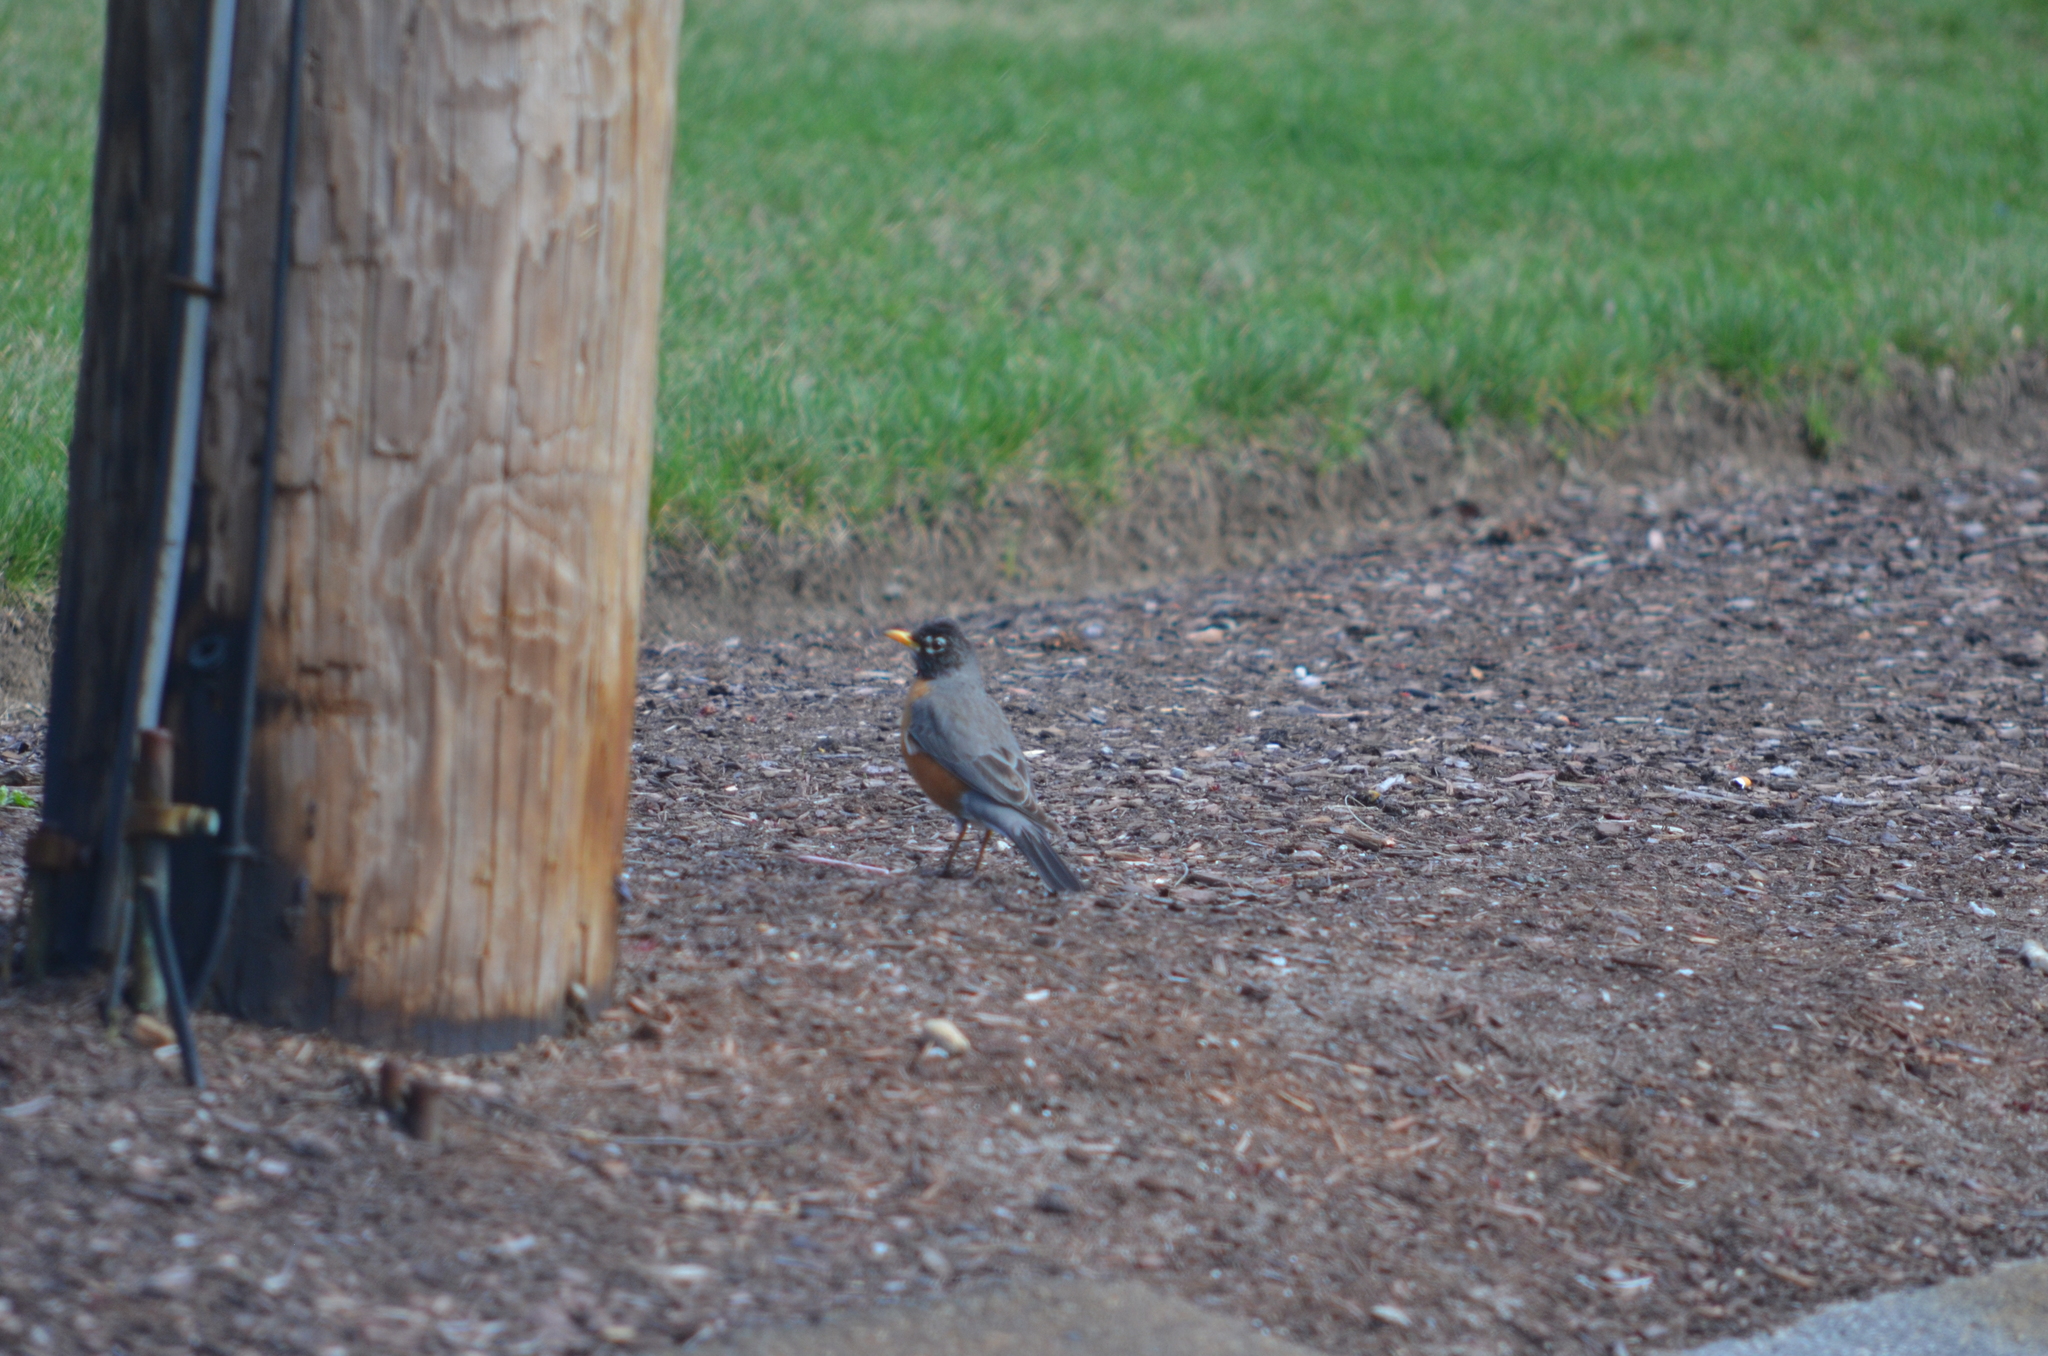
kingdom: Animalia
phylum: Chordata
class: Aves
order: Passeriformes
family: Turdidae
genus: Turdus
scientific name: Turdus migratorius
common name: American robin
